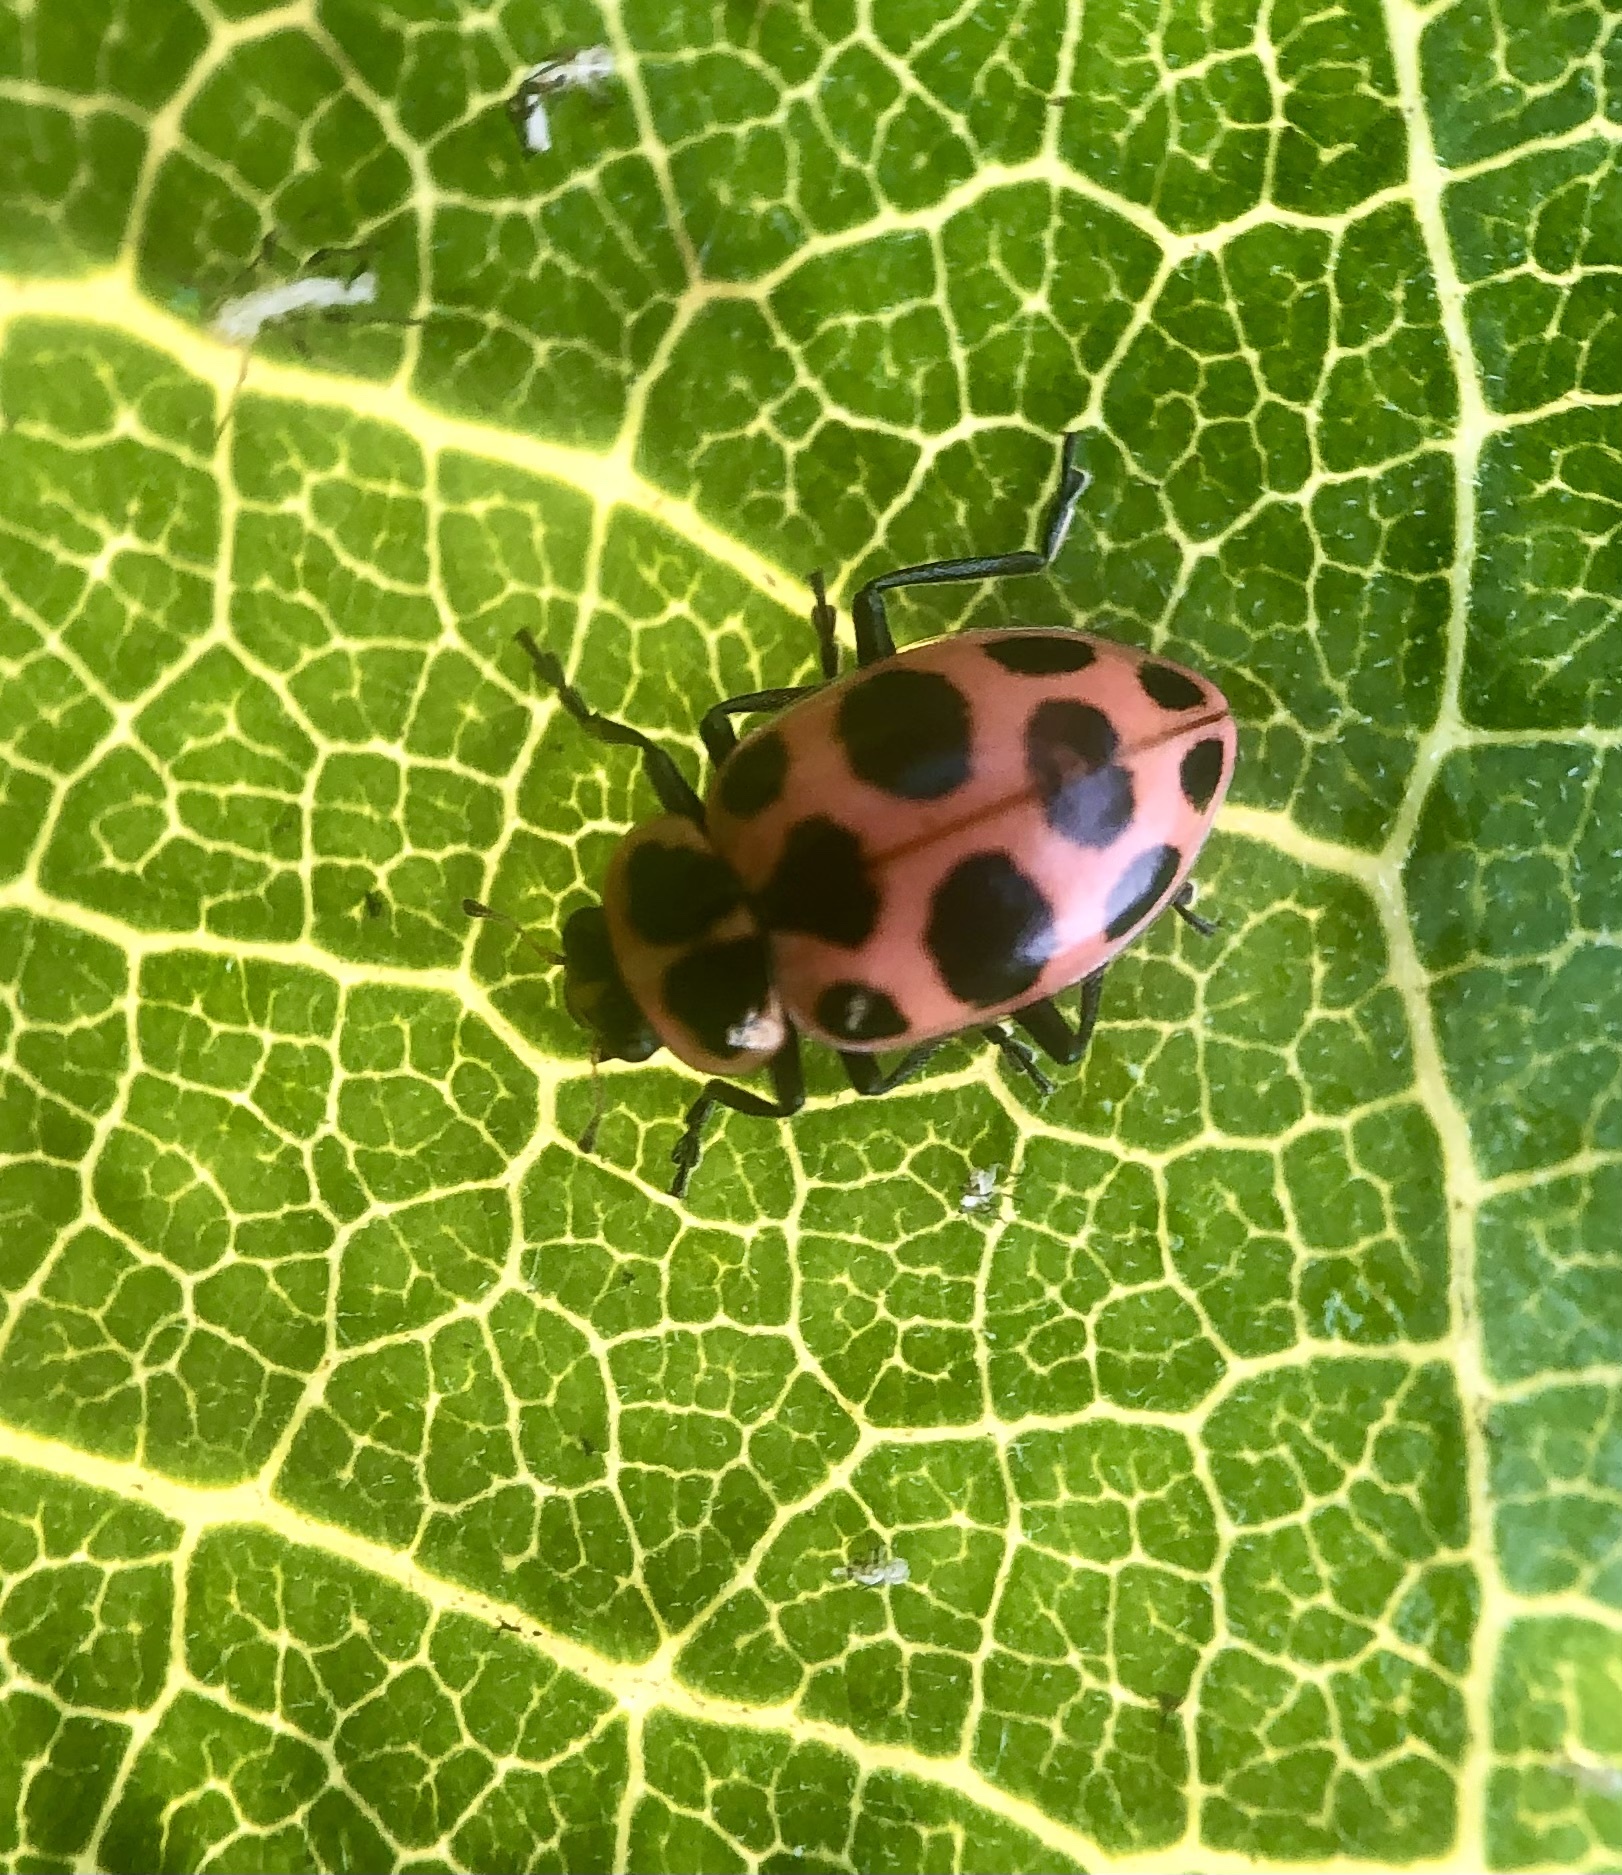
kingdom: Animalia
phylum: Arthropoda
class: Insecta
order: Coleoptera
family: Coccinellidae
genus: Coleomegilla
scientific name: Coleomegilla maculata
